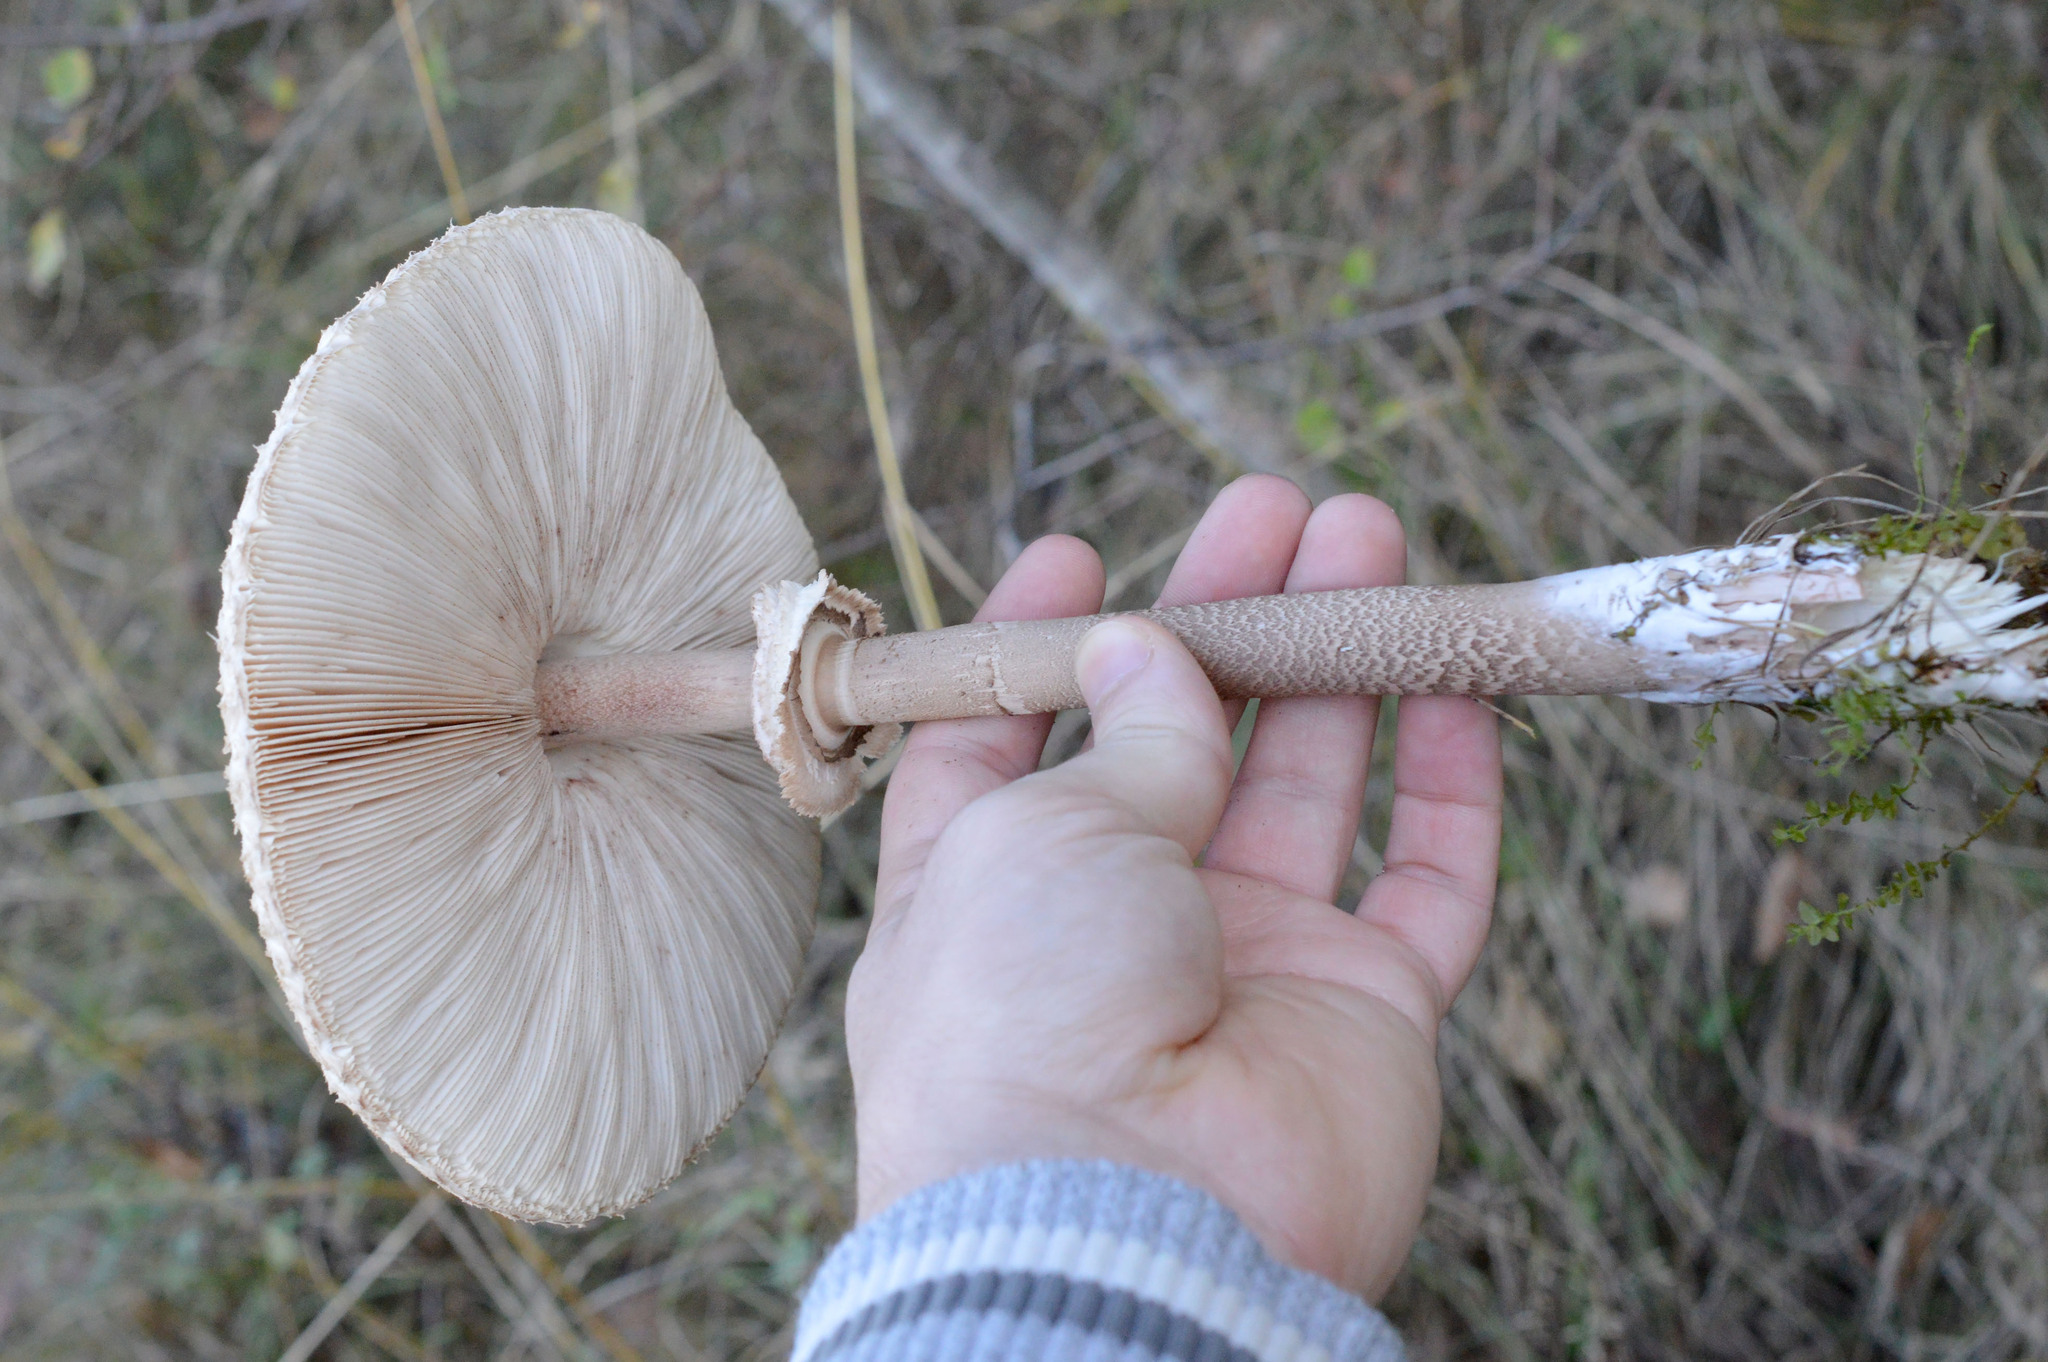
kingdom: Fungi
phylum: Basidiomycota
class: Agaricomycetes
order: Agaricales
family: Agaricaceae
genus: Macrolepiota
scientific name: Macrolepiota procera
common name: Parasol
